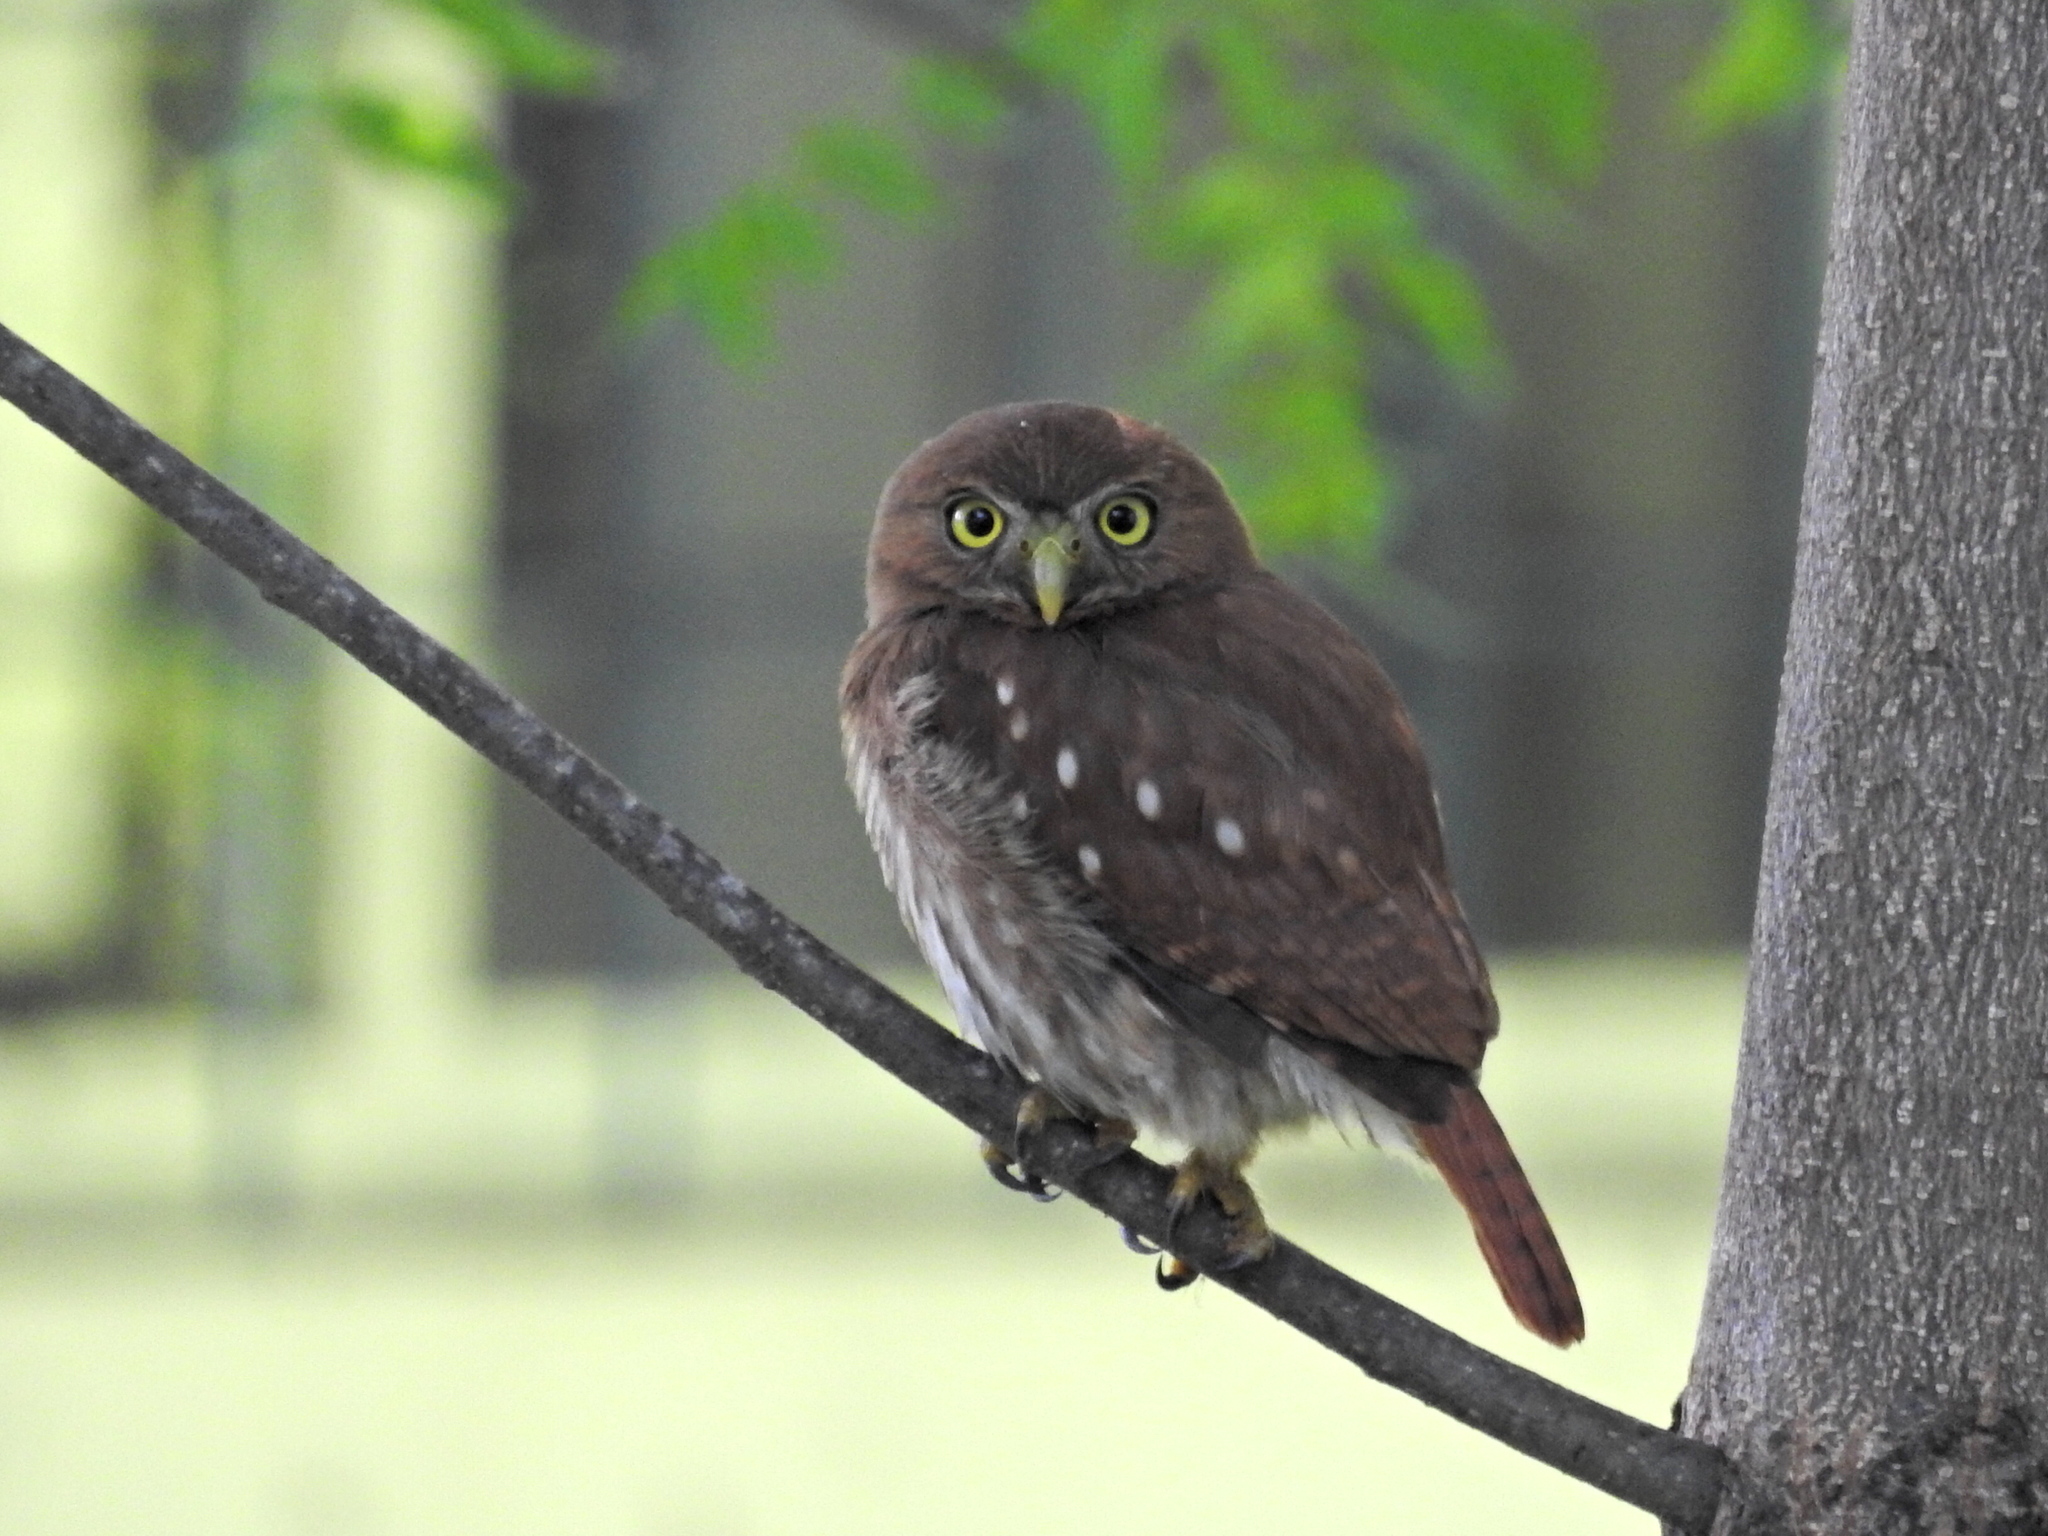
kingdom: Animalia
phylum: Chordata
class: Aves
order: Strigiformes
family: Strigidae
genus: Glaucidium
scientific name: Glaucidium brasilianum
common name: Ferruginous pygmy-owl
